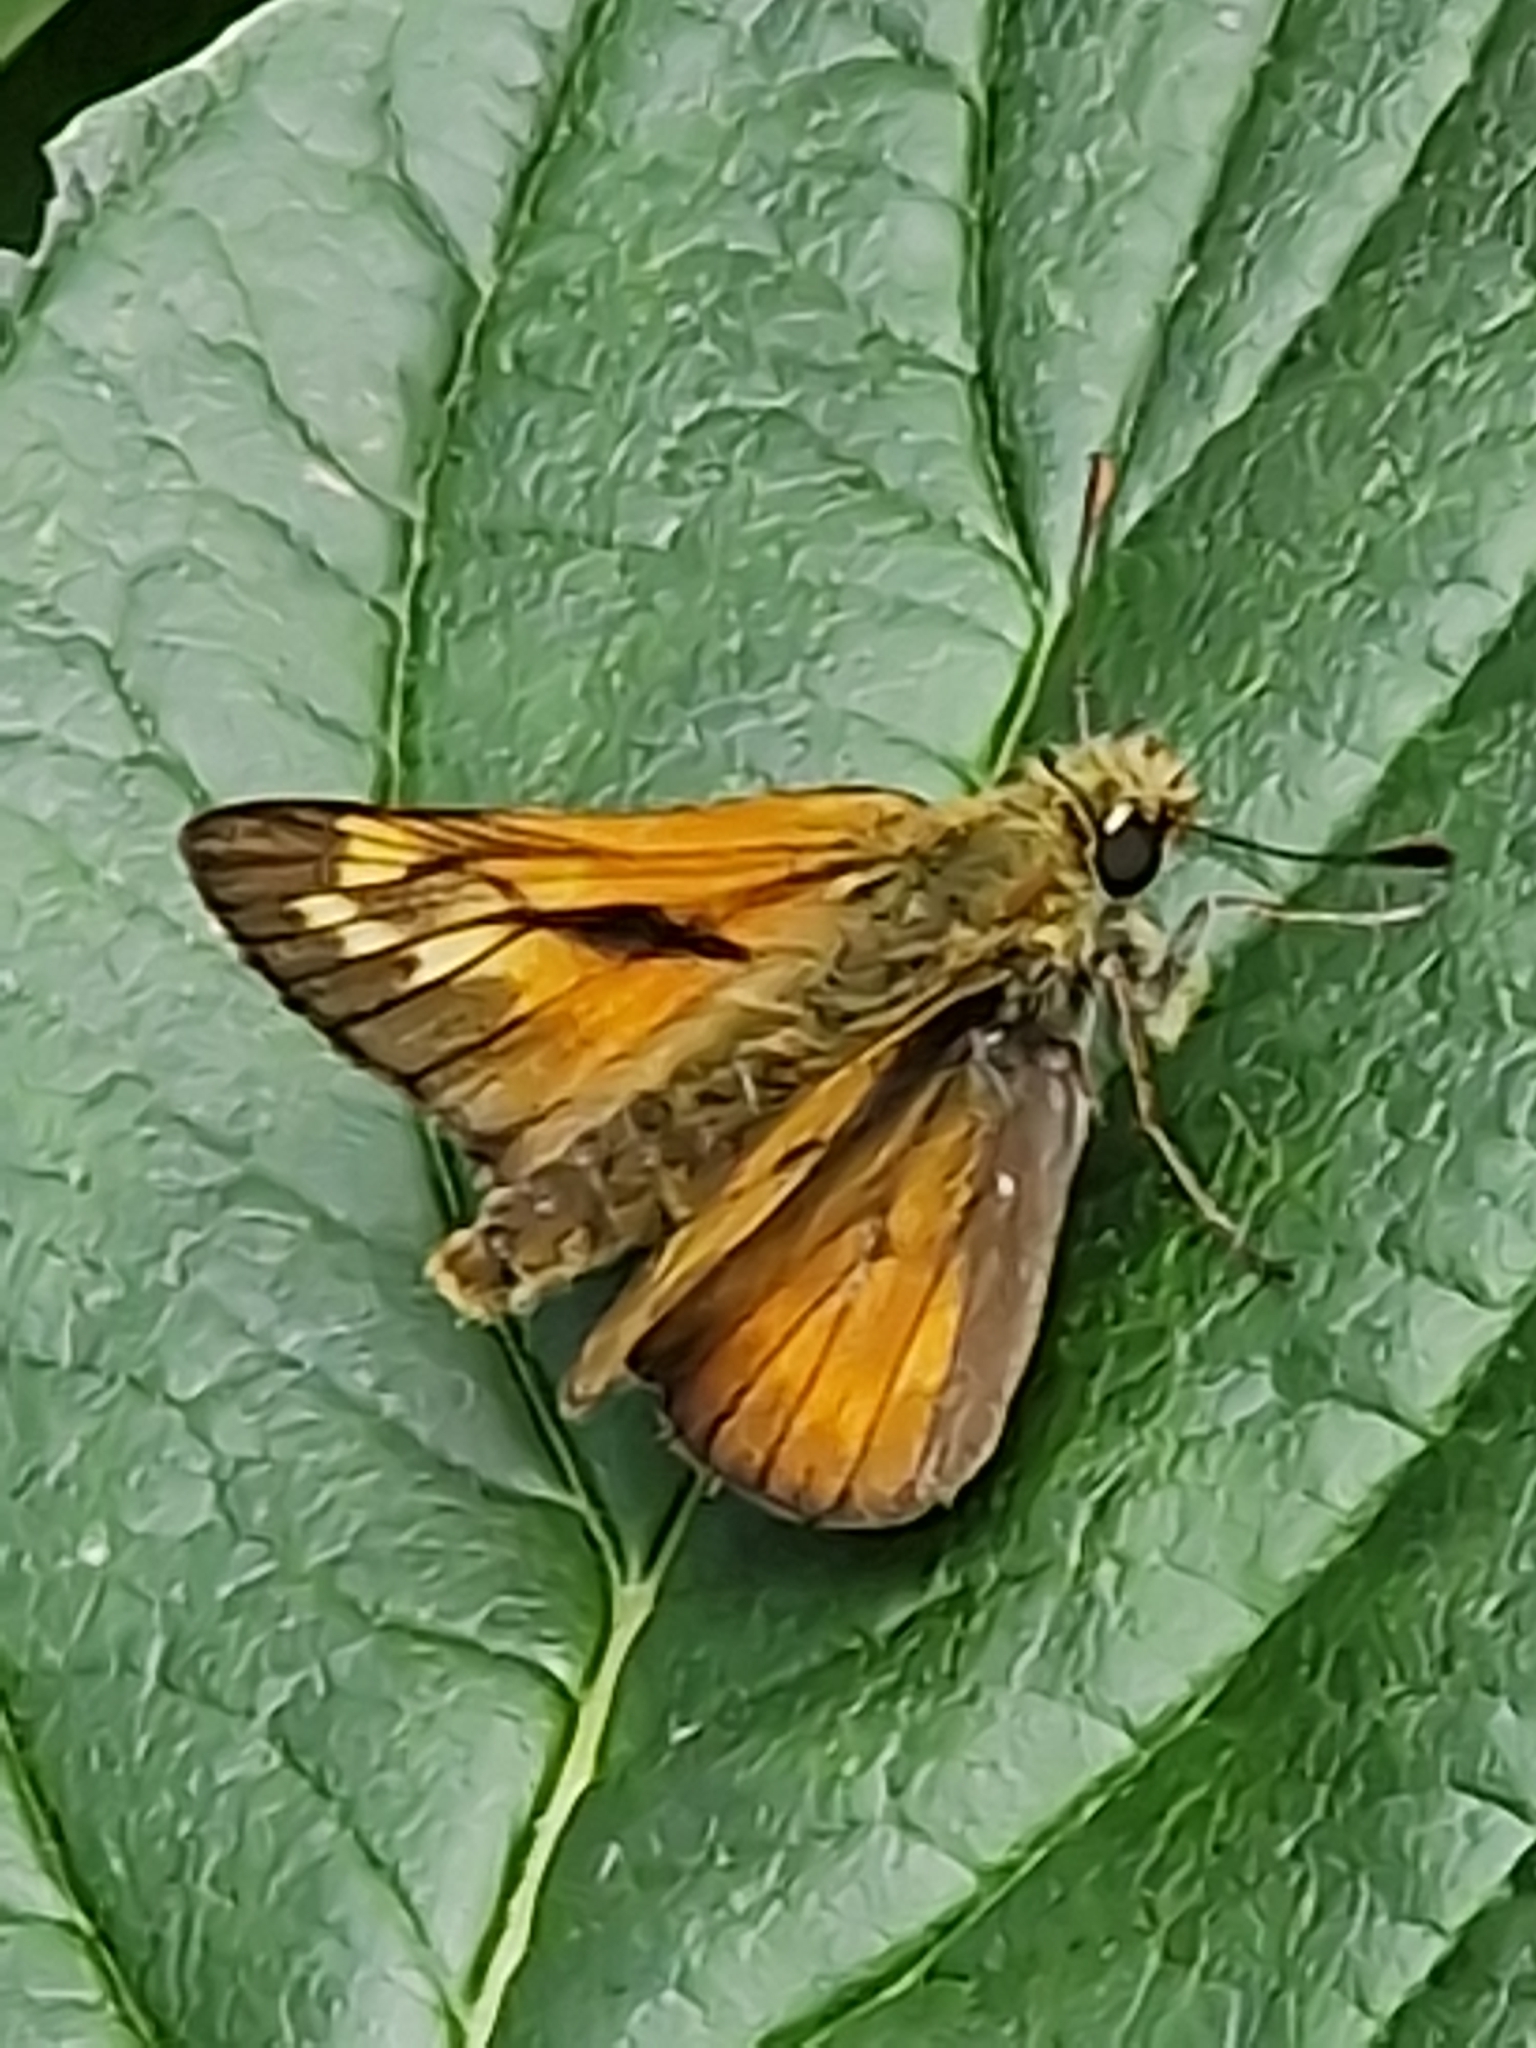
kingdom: Animalia
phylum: Arthropoda
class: Insecta
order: Lepidoptera
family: Hesperiidae
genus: Ochlodes
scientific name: Ochlodes venata
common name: Large skipper
